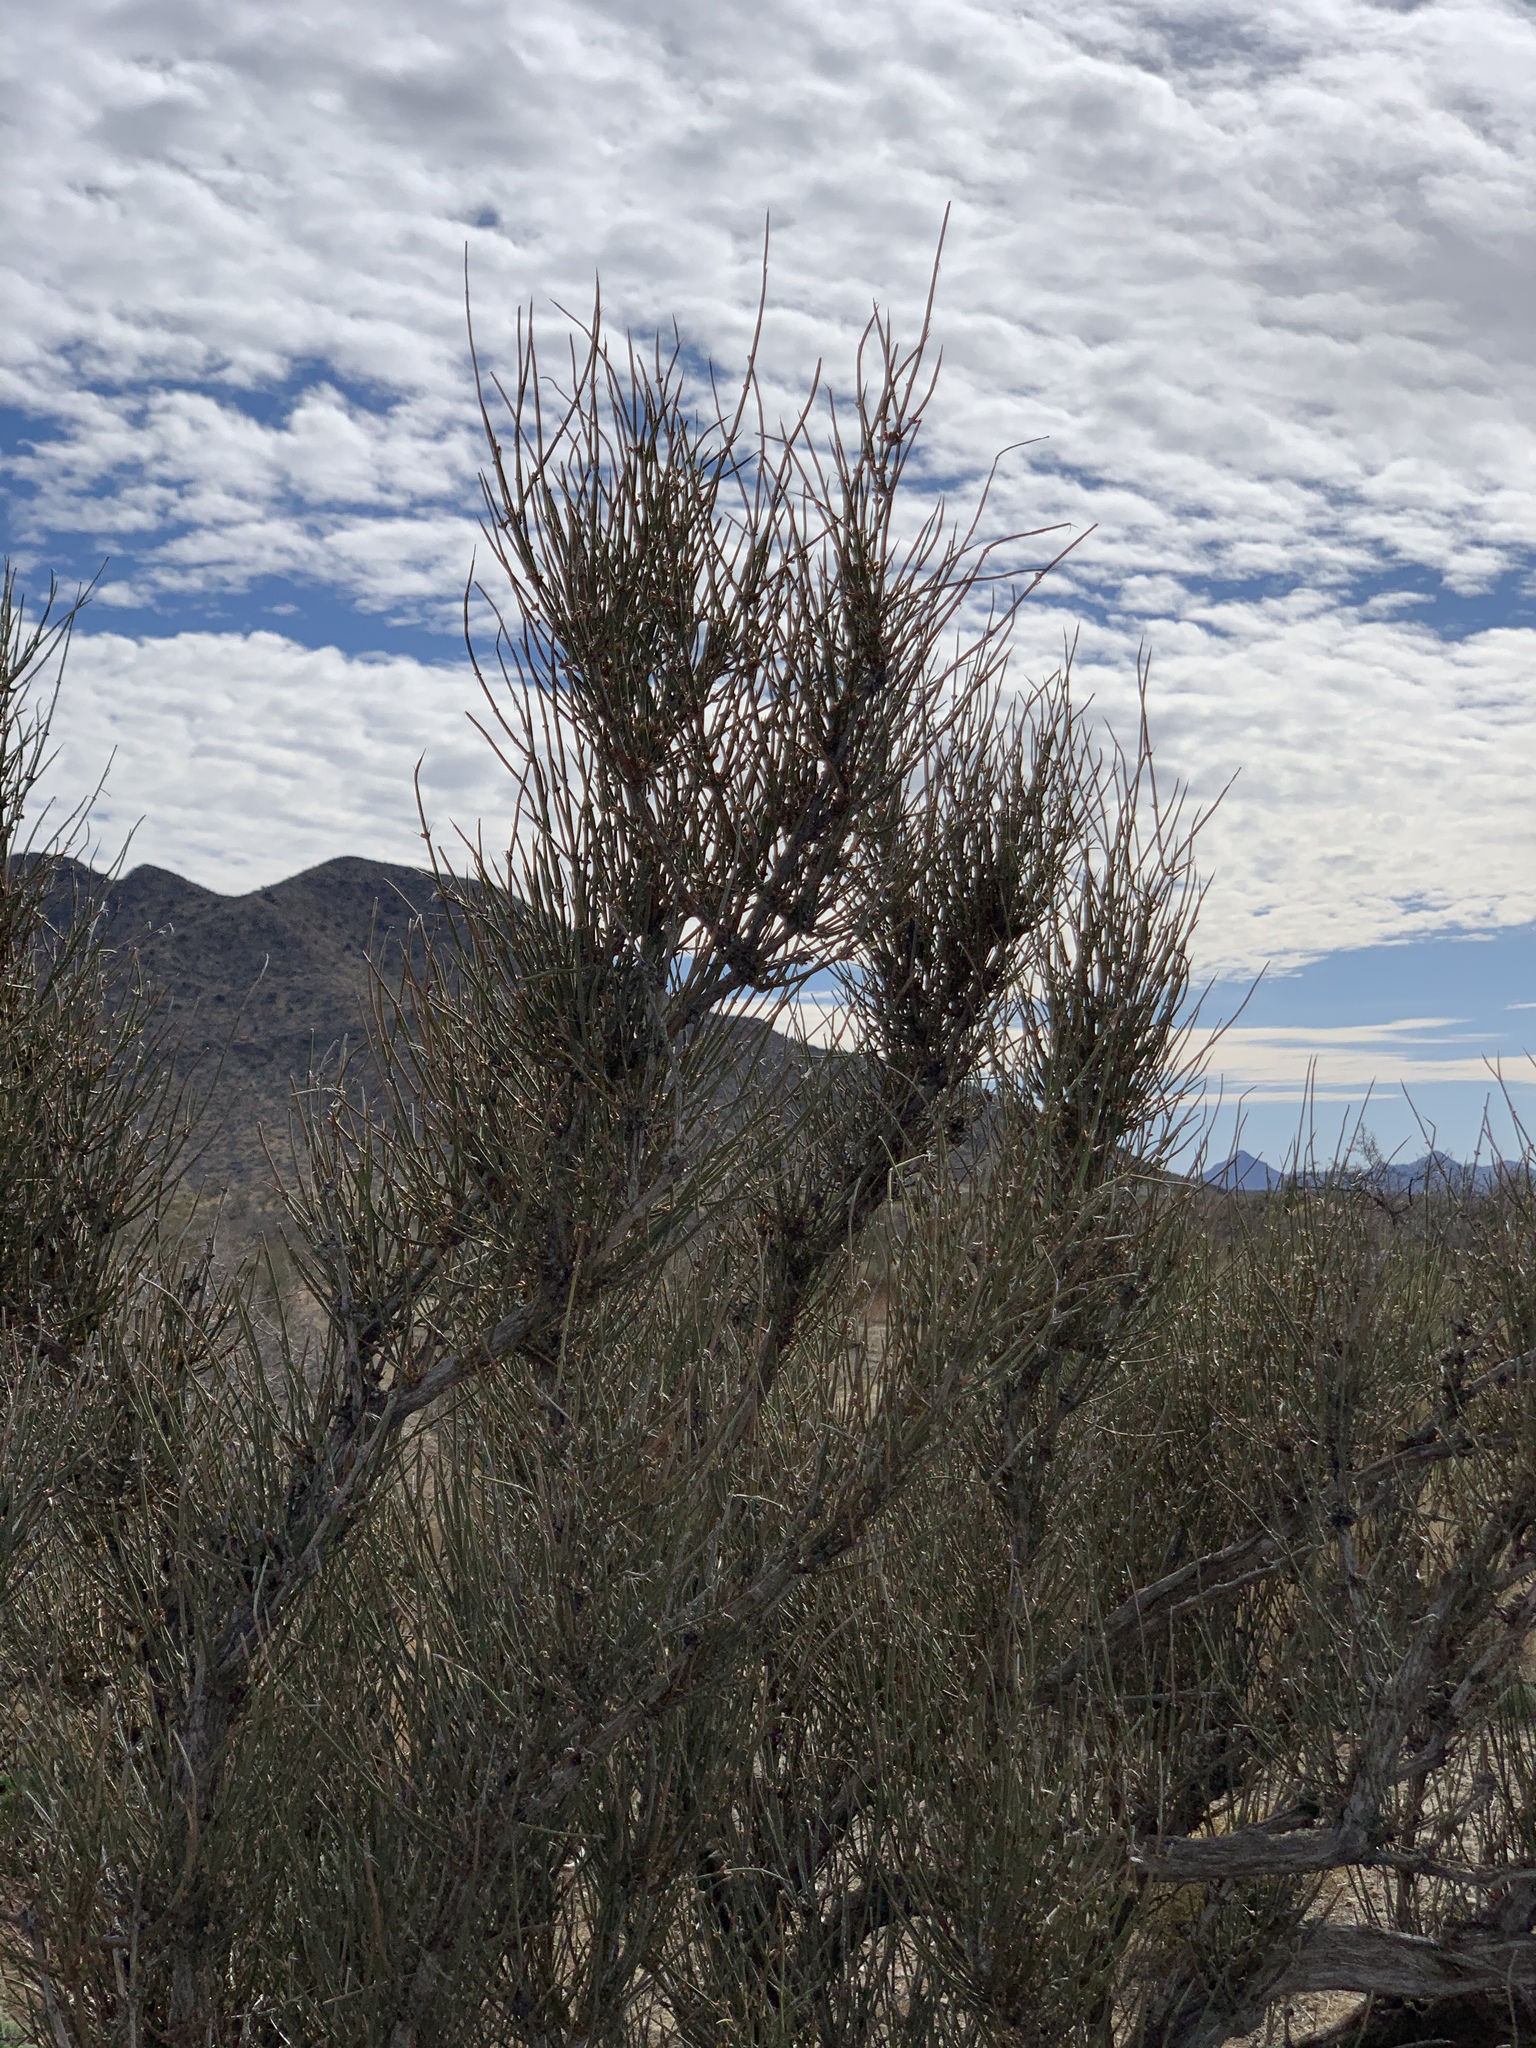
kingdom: Plantae
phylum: Tracheophyta
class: Gnetopsida
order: Ephedrales
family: Ephedraceae
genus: Ephedra
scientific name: Ephedra trifurca
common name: Mexican-tea
